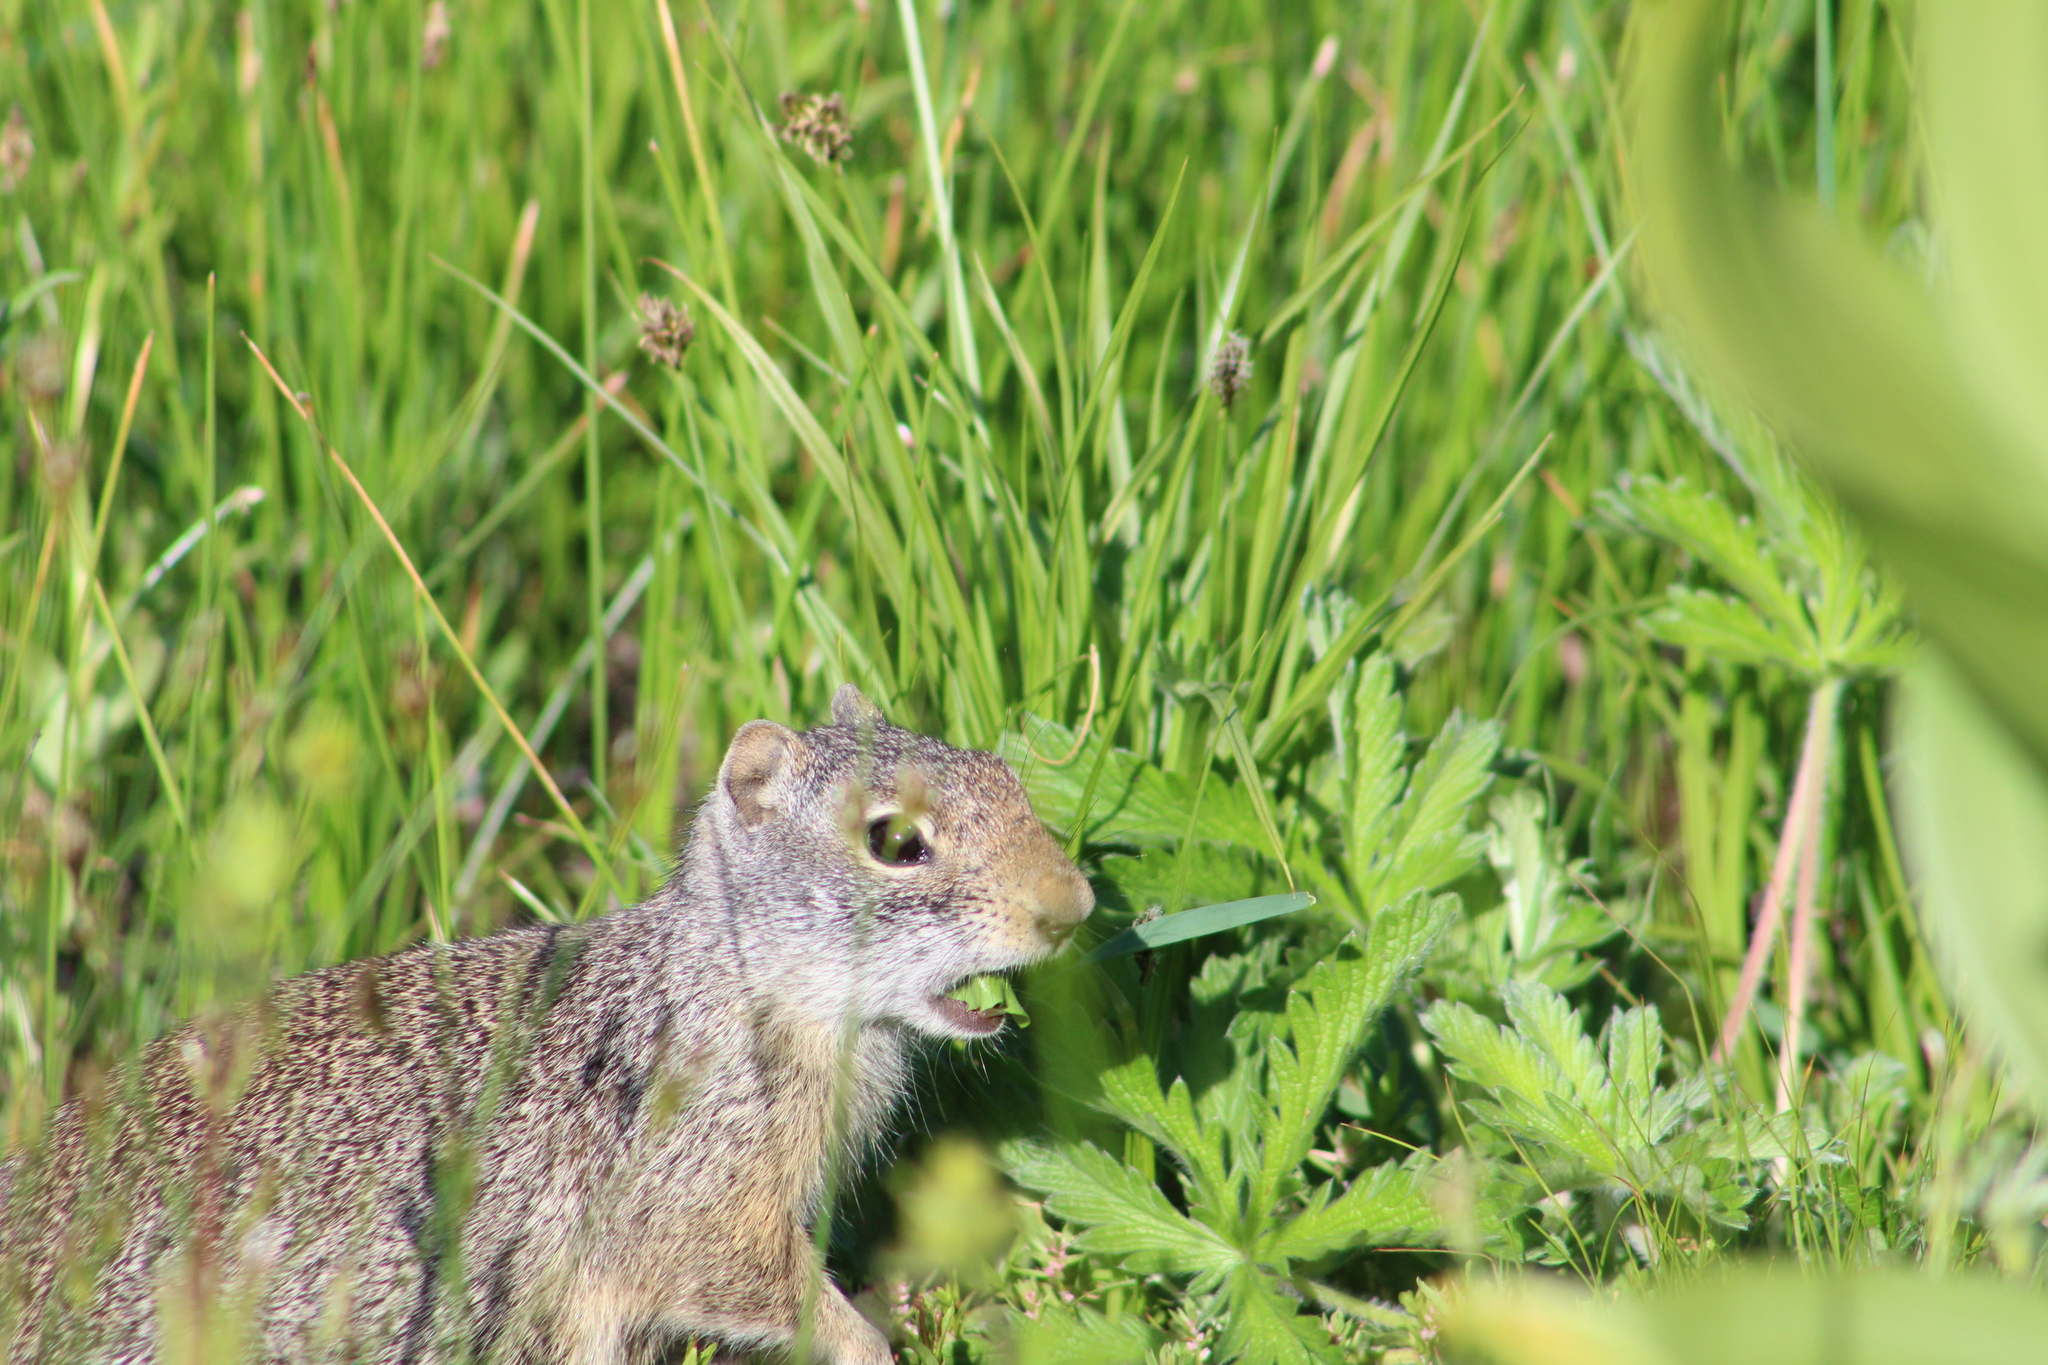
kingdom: Animalia
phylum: Chordata
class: Mammalia
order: Rodentia
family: Sciuridae
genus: Urocitellus
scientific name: Urocitellus armatus
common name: Uinta ground squirrel
